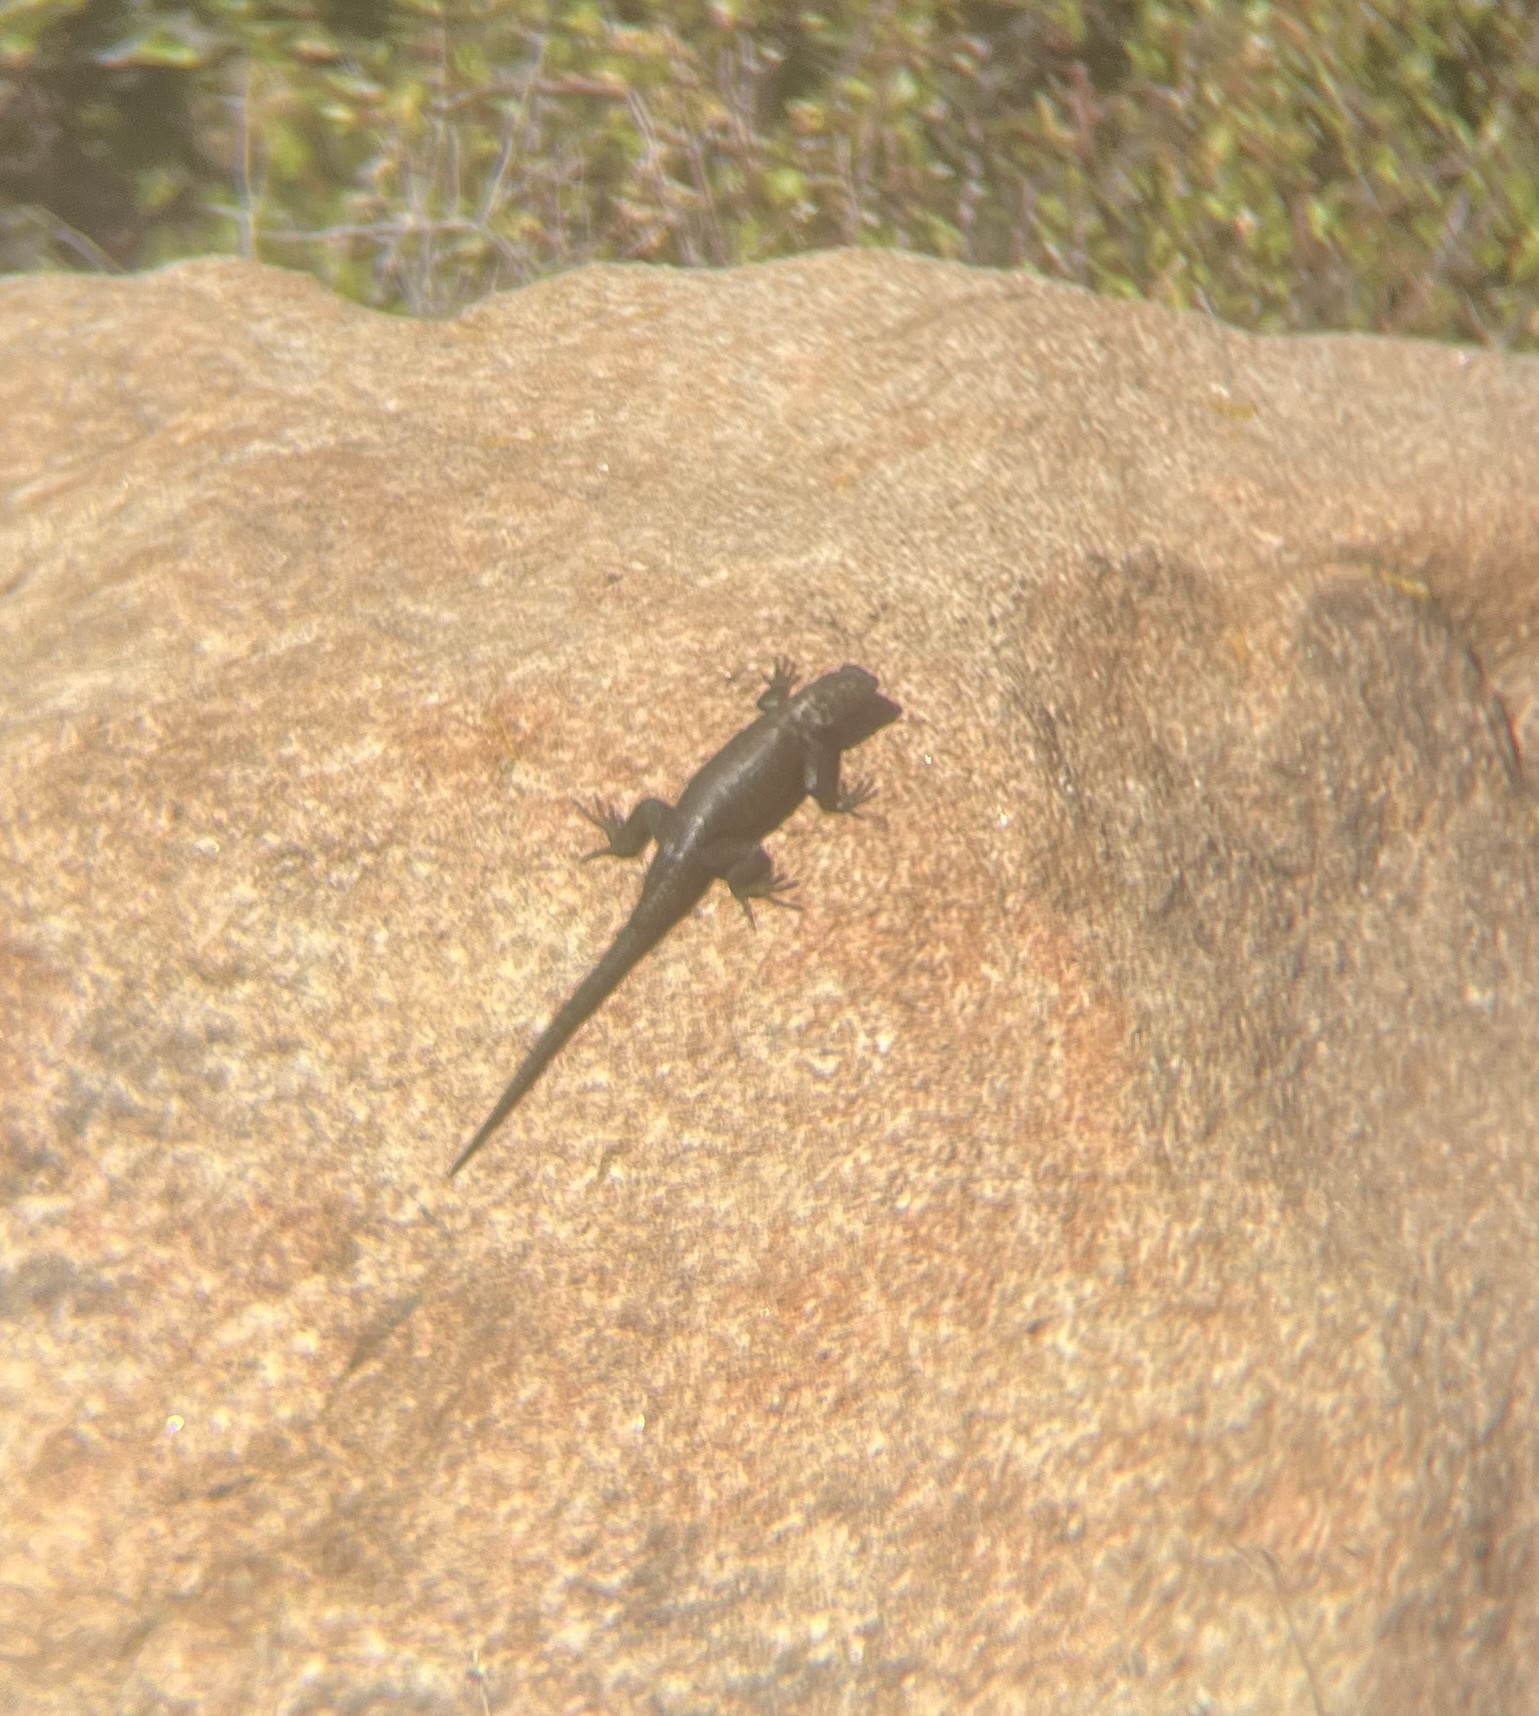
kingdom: Animalia
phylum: Chordata
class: Squamata
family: Phrynosomatidae
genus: Sceloporus
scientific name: Sceloporus orcutti
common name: Granite spiny lizard
